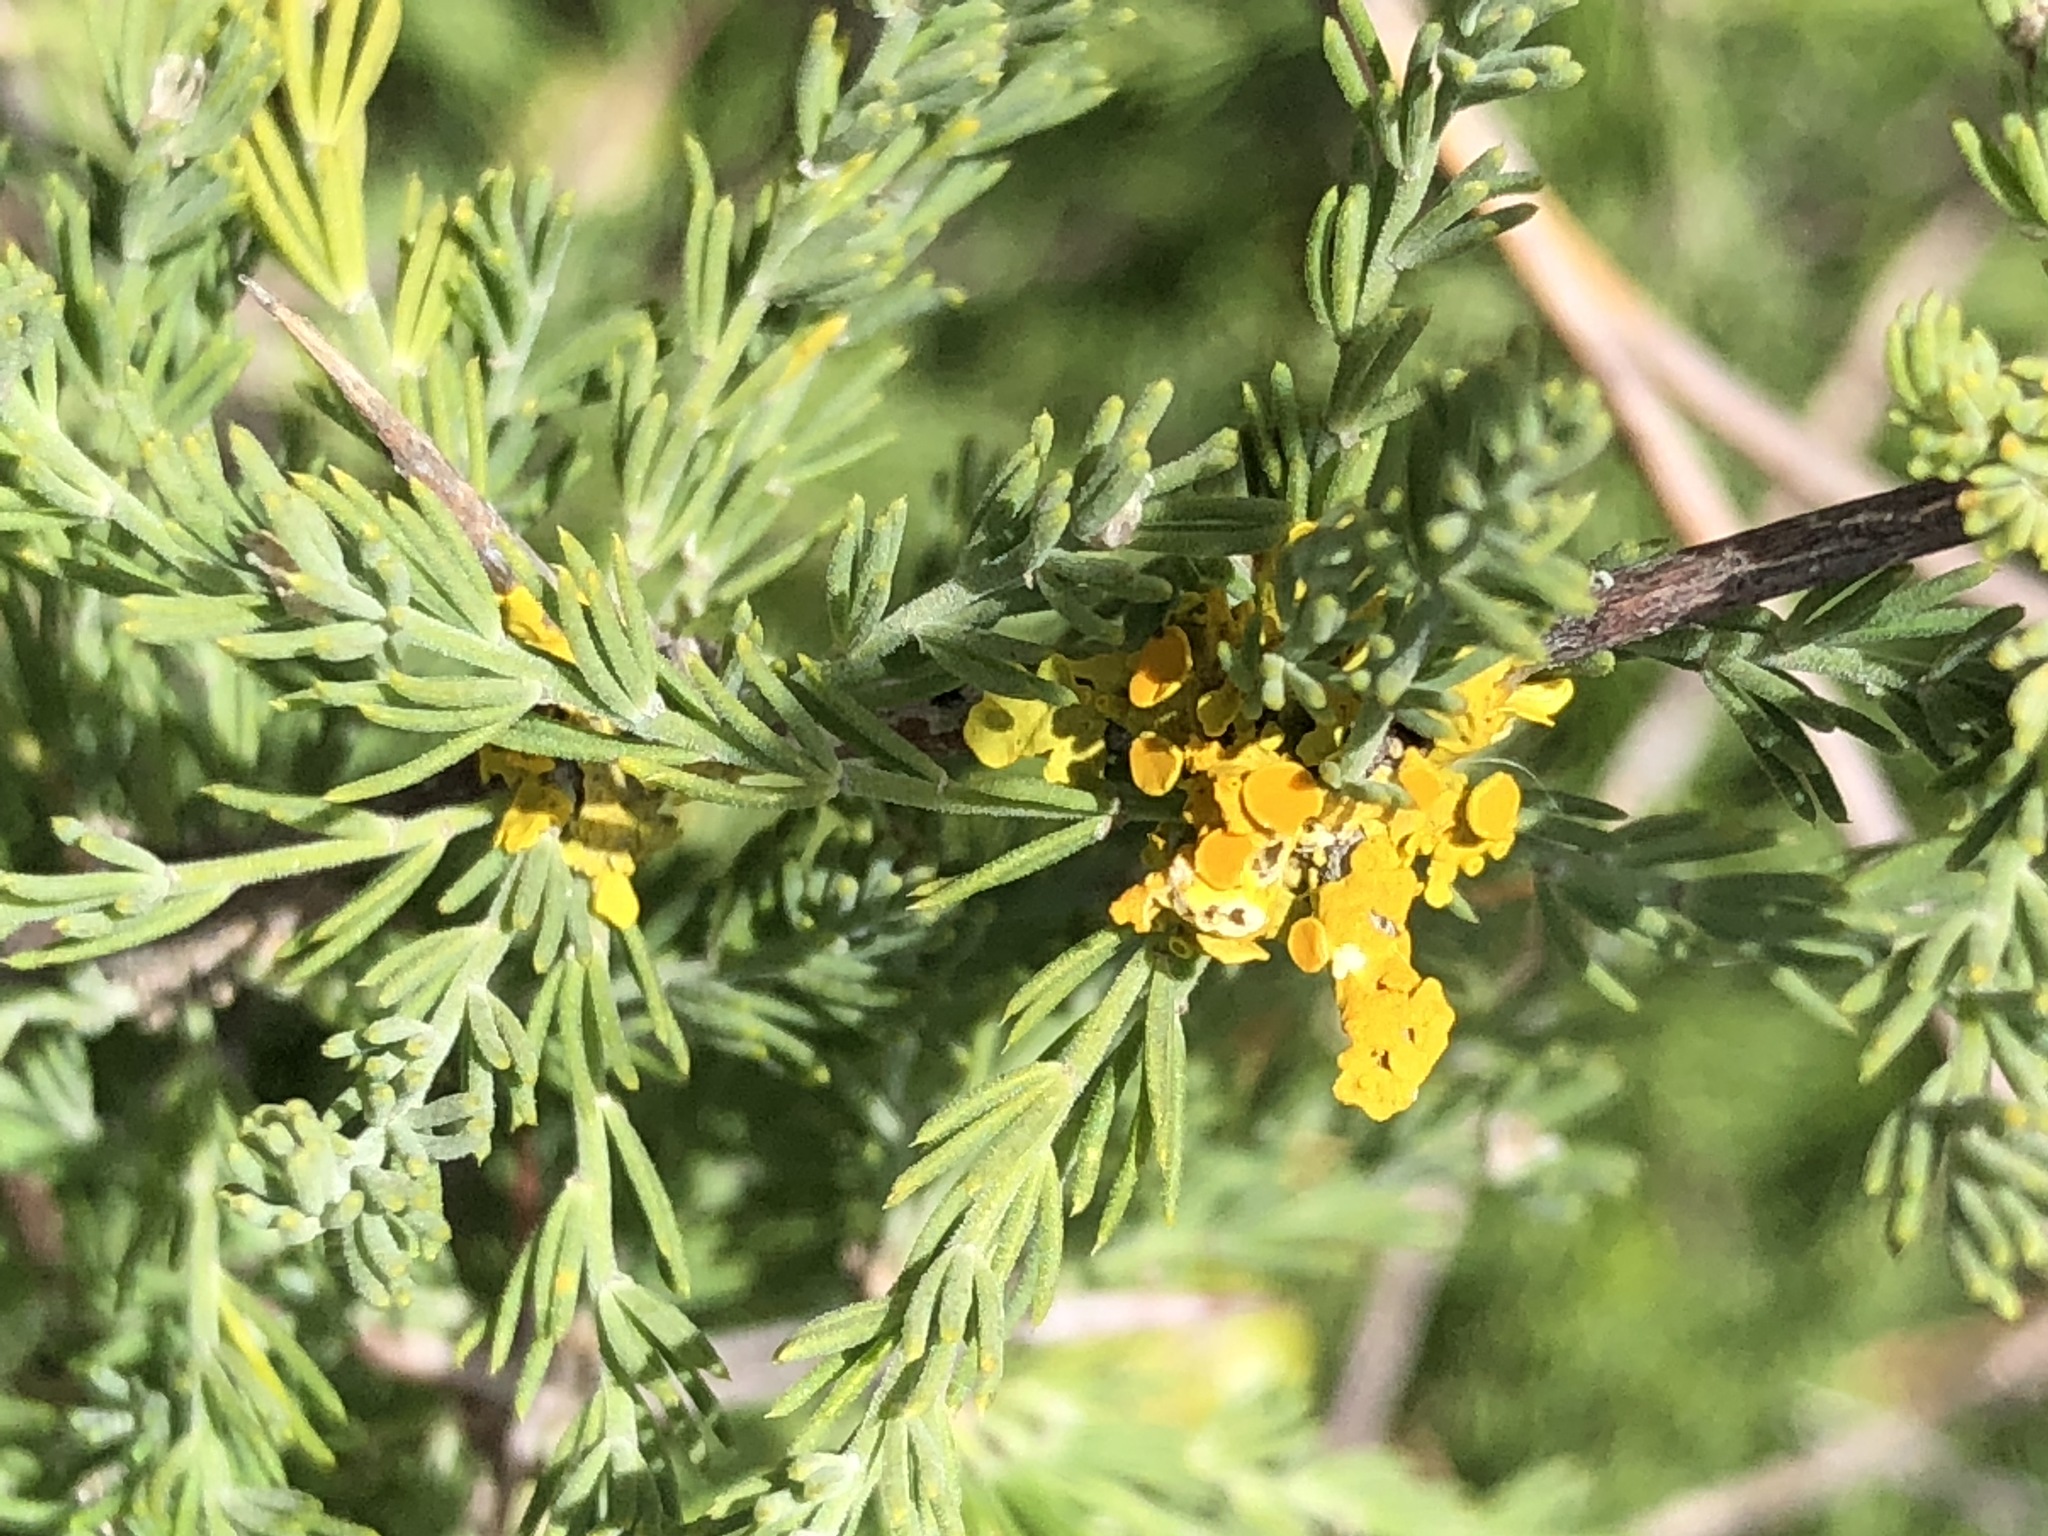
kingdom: Fungi
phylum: Ascomycota
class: Lecanoromycetes
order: Teloschistales
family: Teloschistaceae
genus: Xanthoria
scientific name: Xanthoria parietina
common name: Common orange lichen
